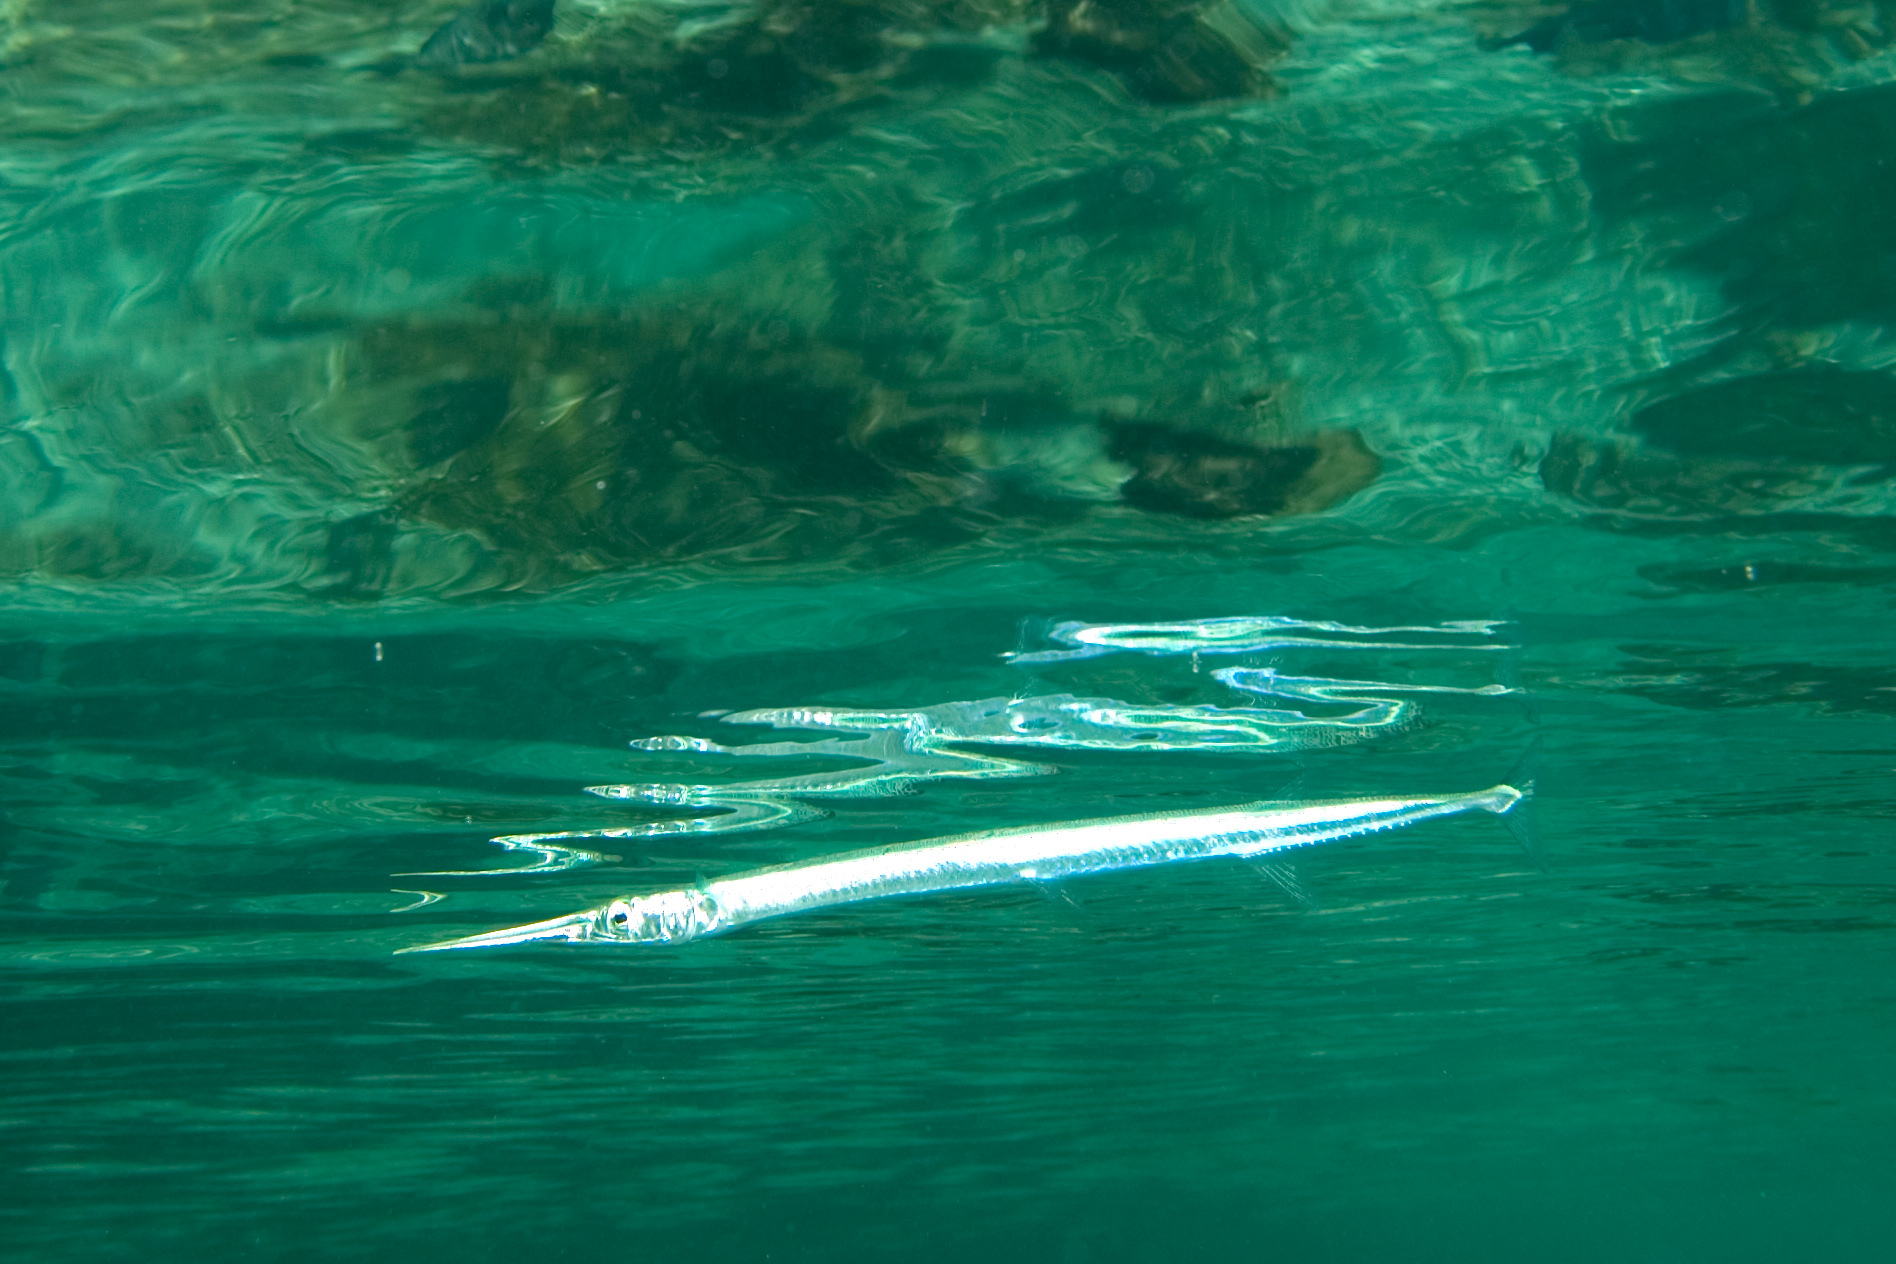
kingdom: Animalia
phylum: Chordata
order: Beloniformes
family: Belonidae
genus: Platybelone
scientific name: Platybelone argalus
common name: Keeltail needlefish
